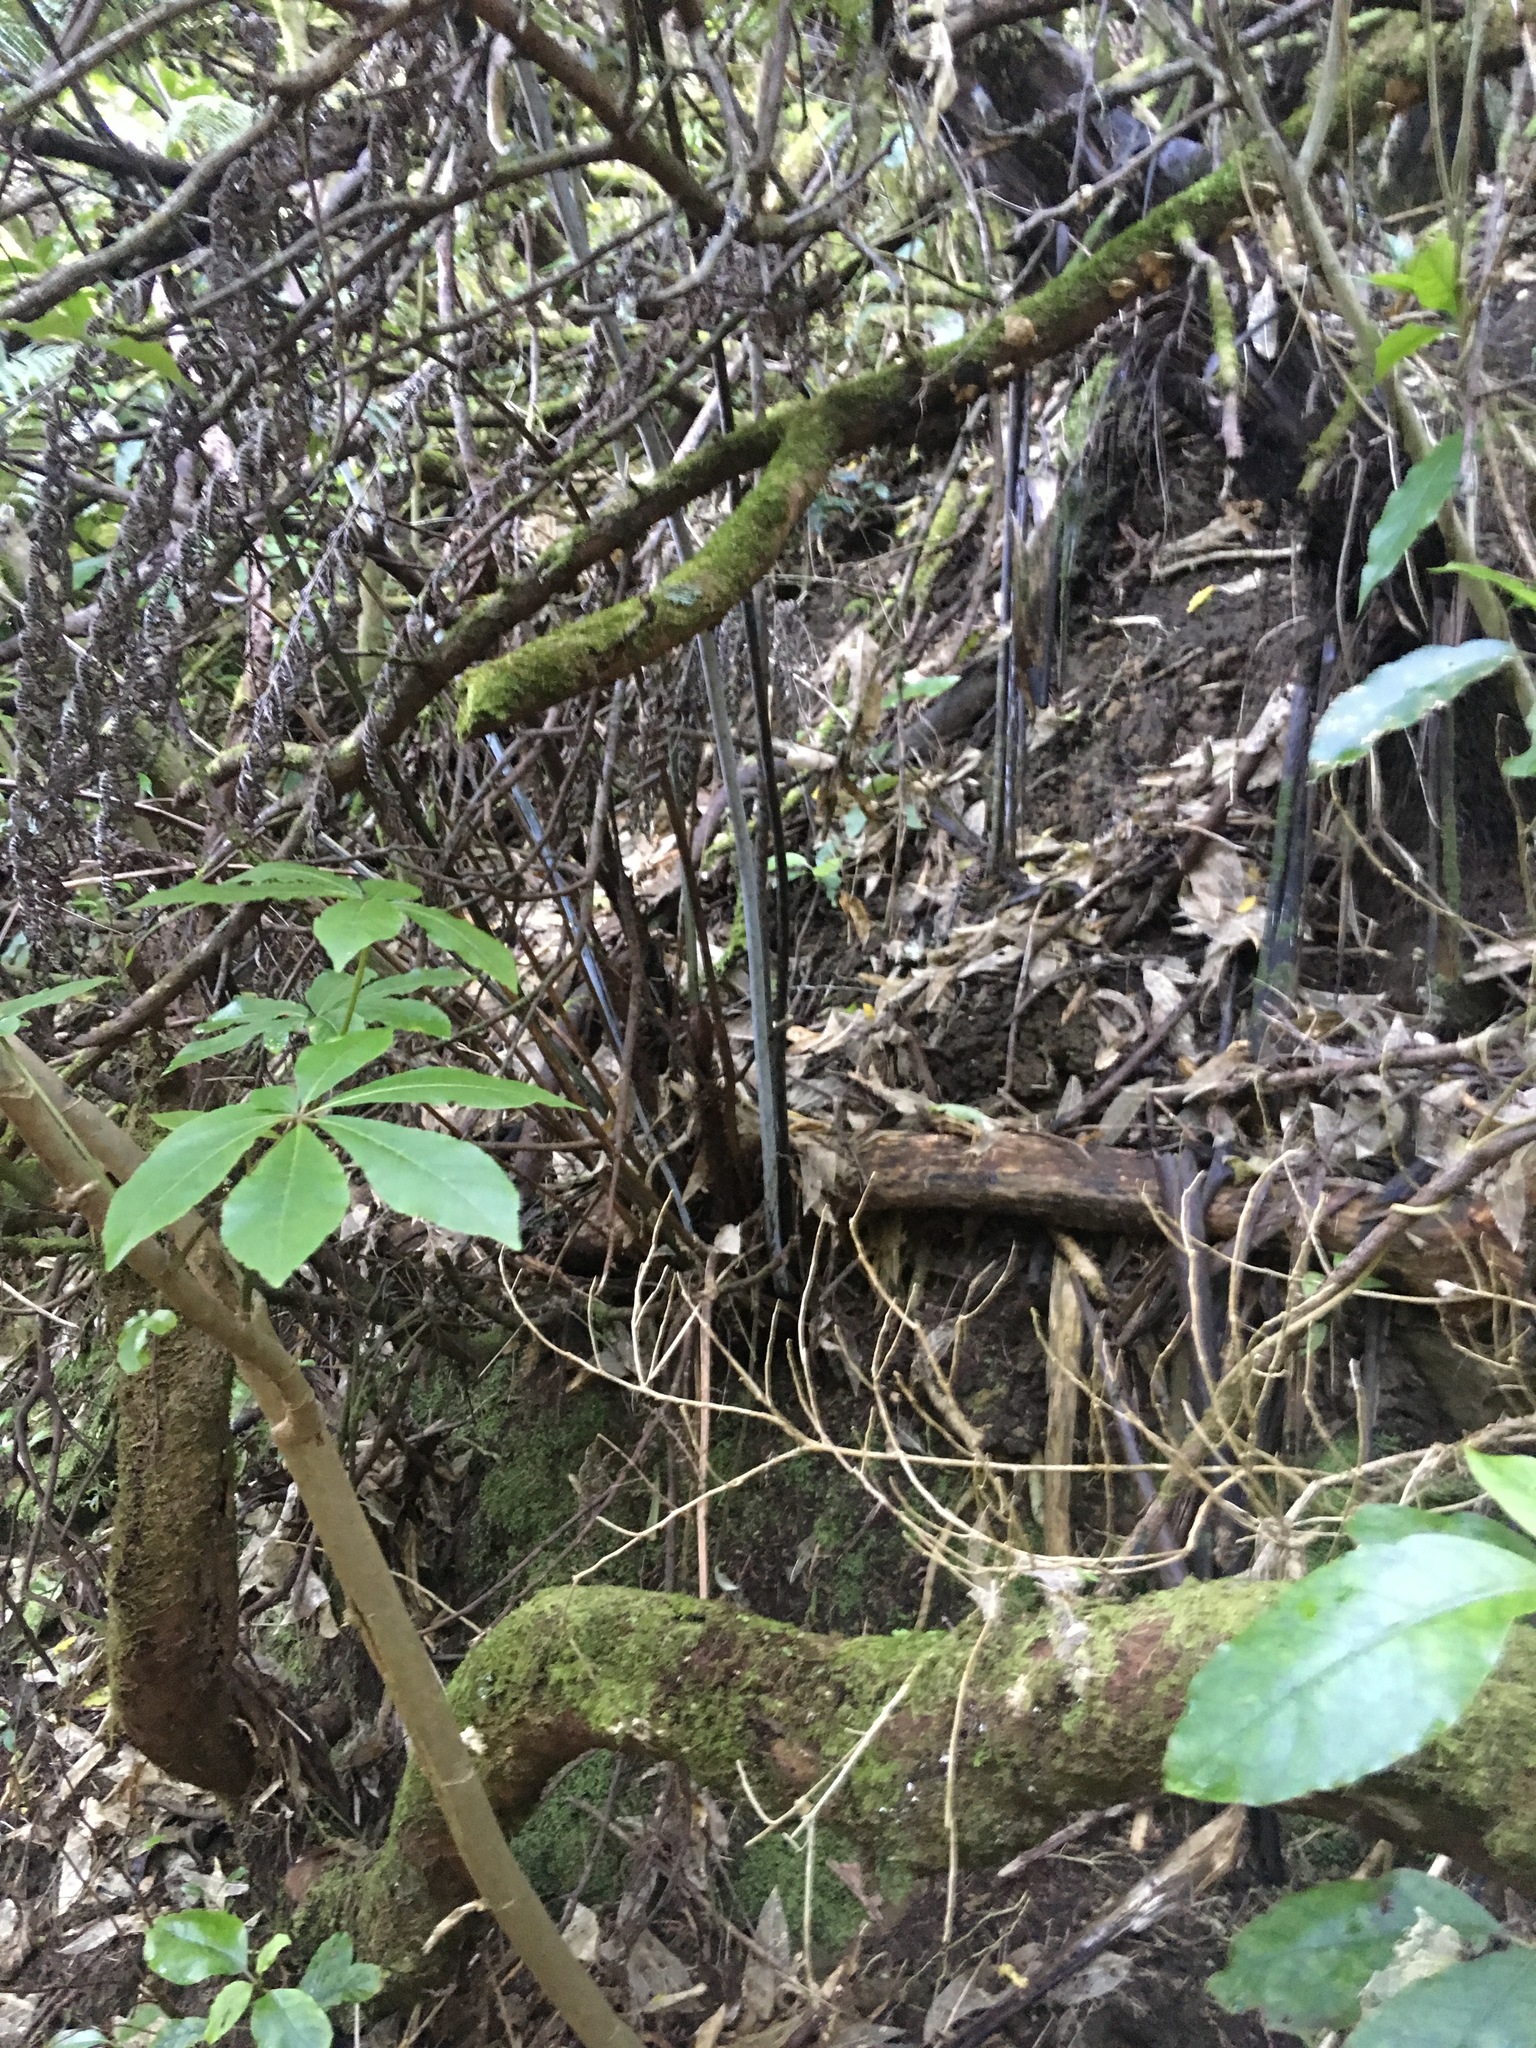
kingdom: Plantae
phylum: Tracheophyta
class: Magnoliopsida
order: Apiales
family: Araliaceae
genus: Schefflera
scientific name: Schefflera digitata
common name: Pate
